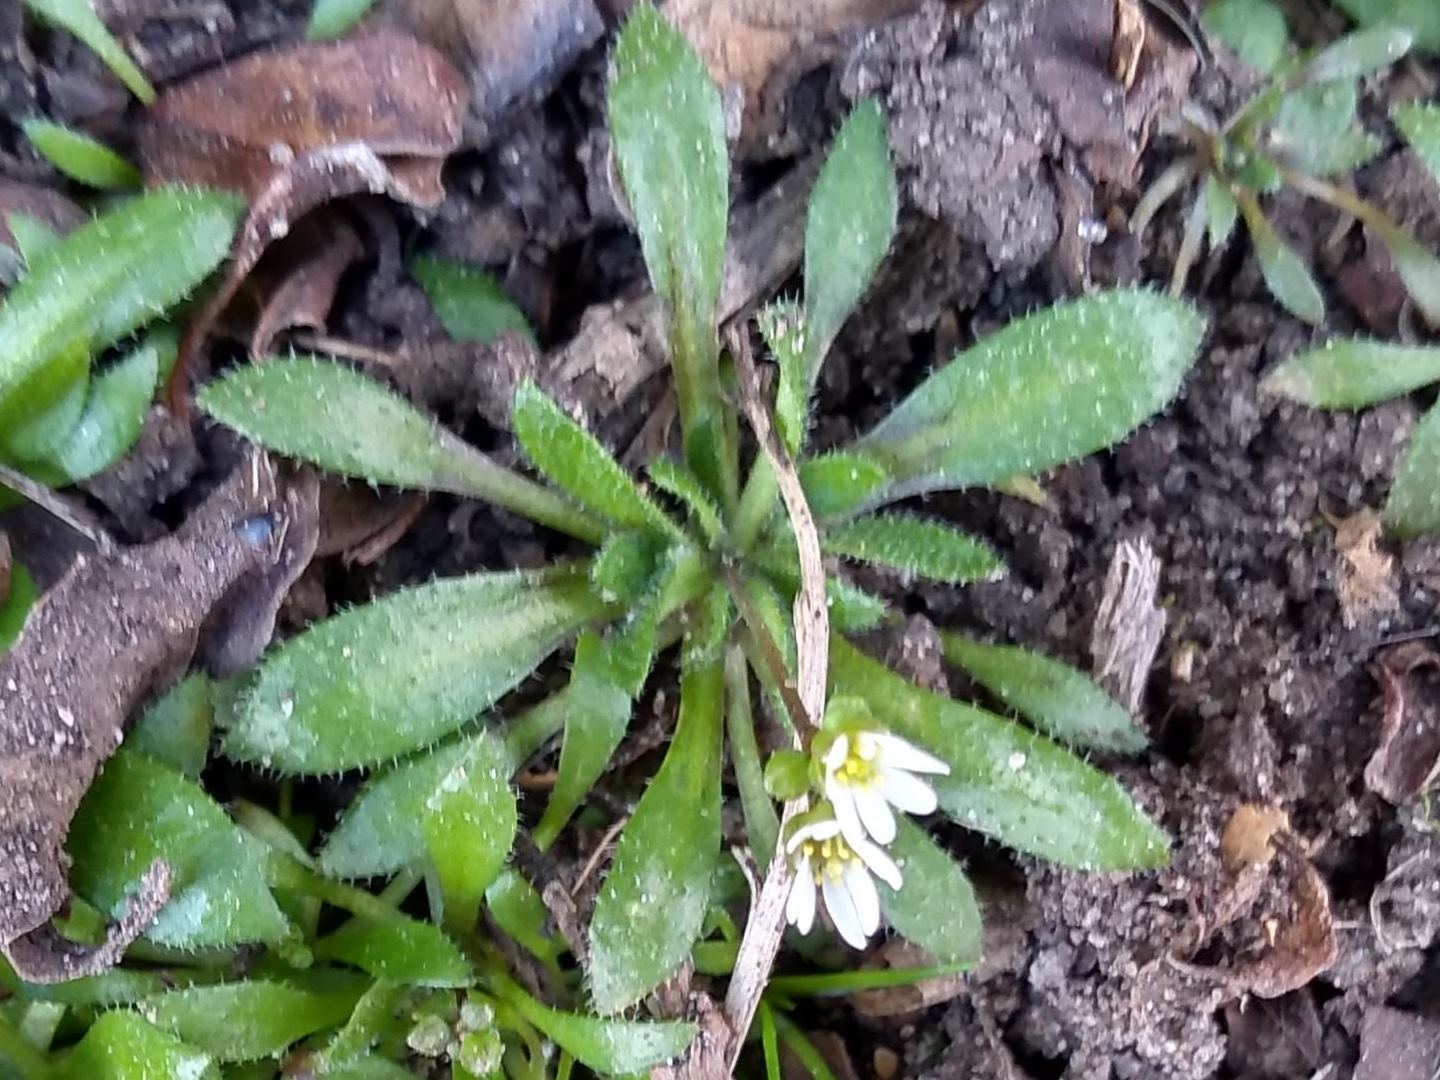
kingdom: Plantae
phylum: Tracheophyta
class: Magnoliopsida
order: Brassicales
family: Brassicaceae
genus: Draba
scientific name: Draba verna
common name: Spring draba
